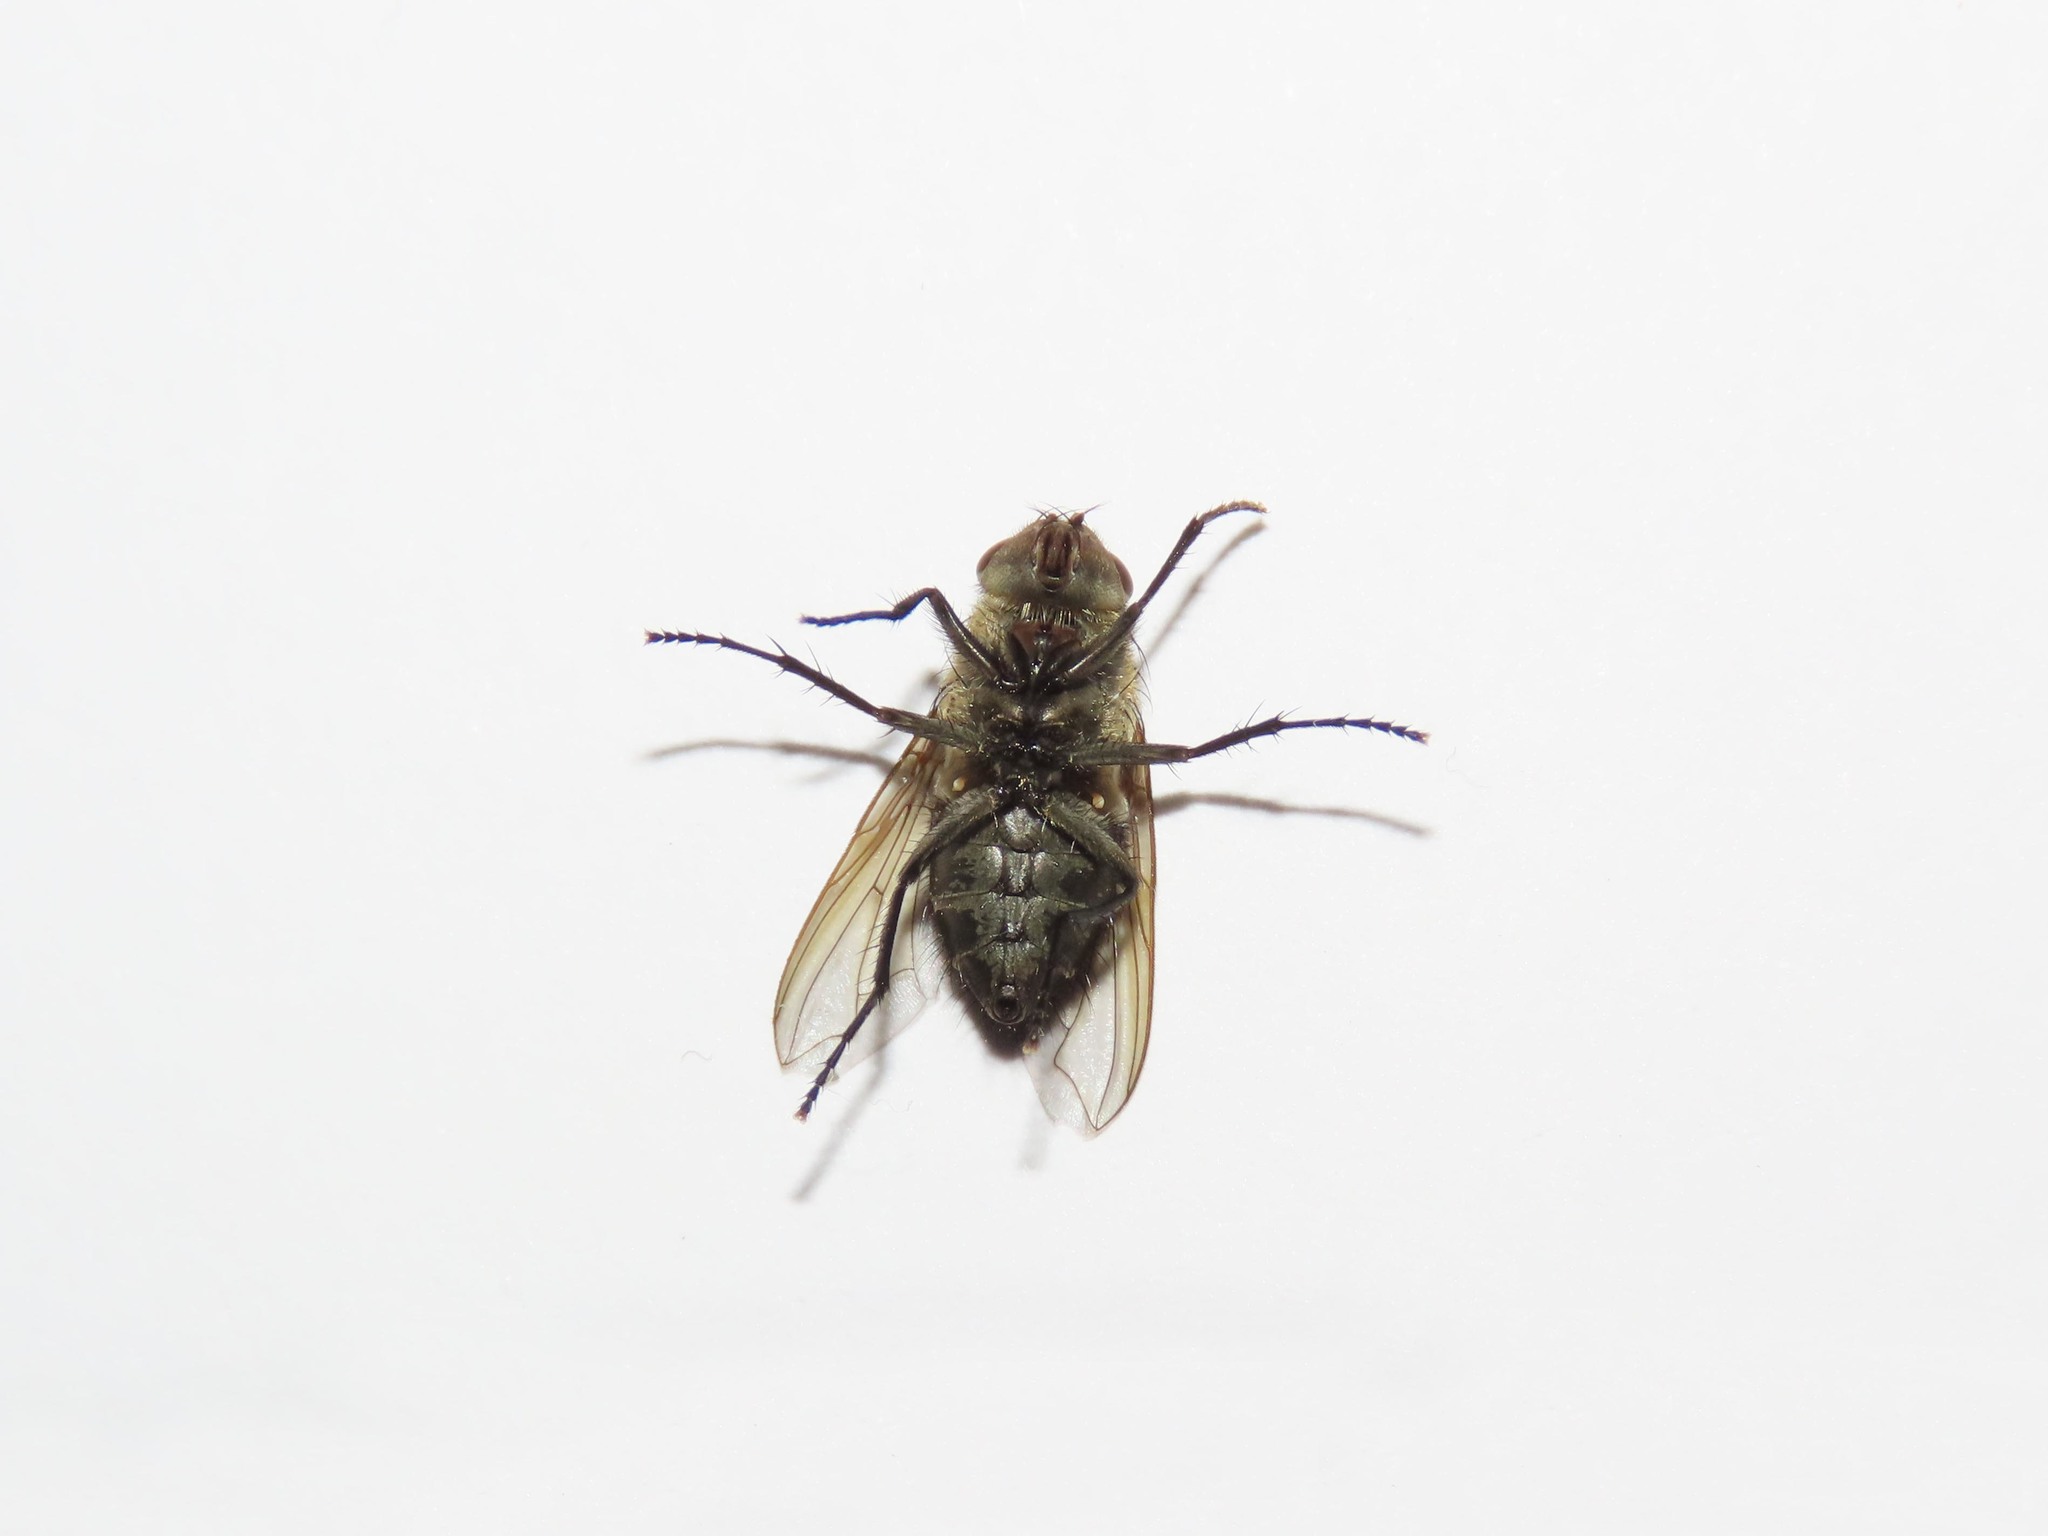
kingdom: Animalia
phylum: Arthropoda
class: Insecta
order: Diptera
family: Polleniidae
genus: Pollenia
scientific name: Pollenia
